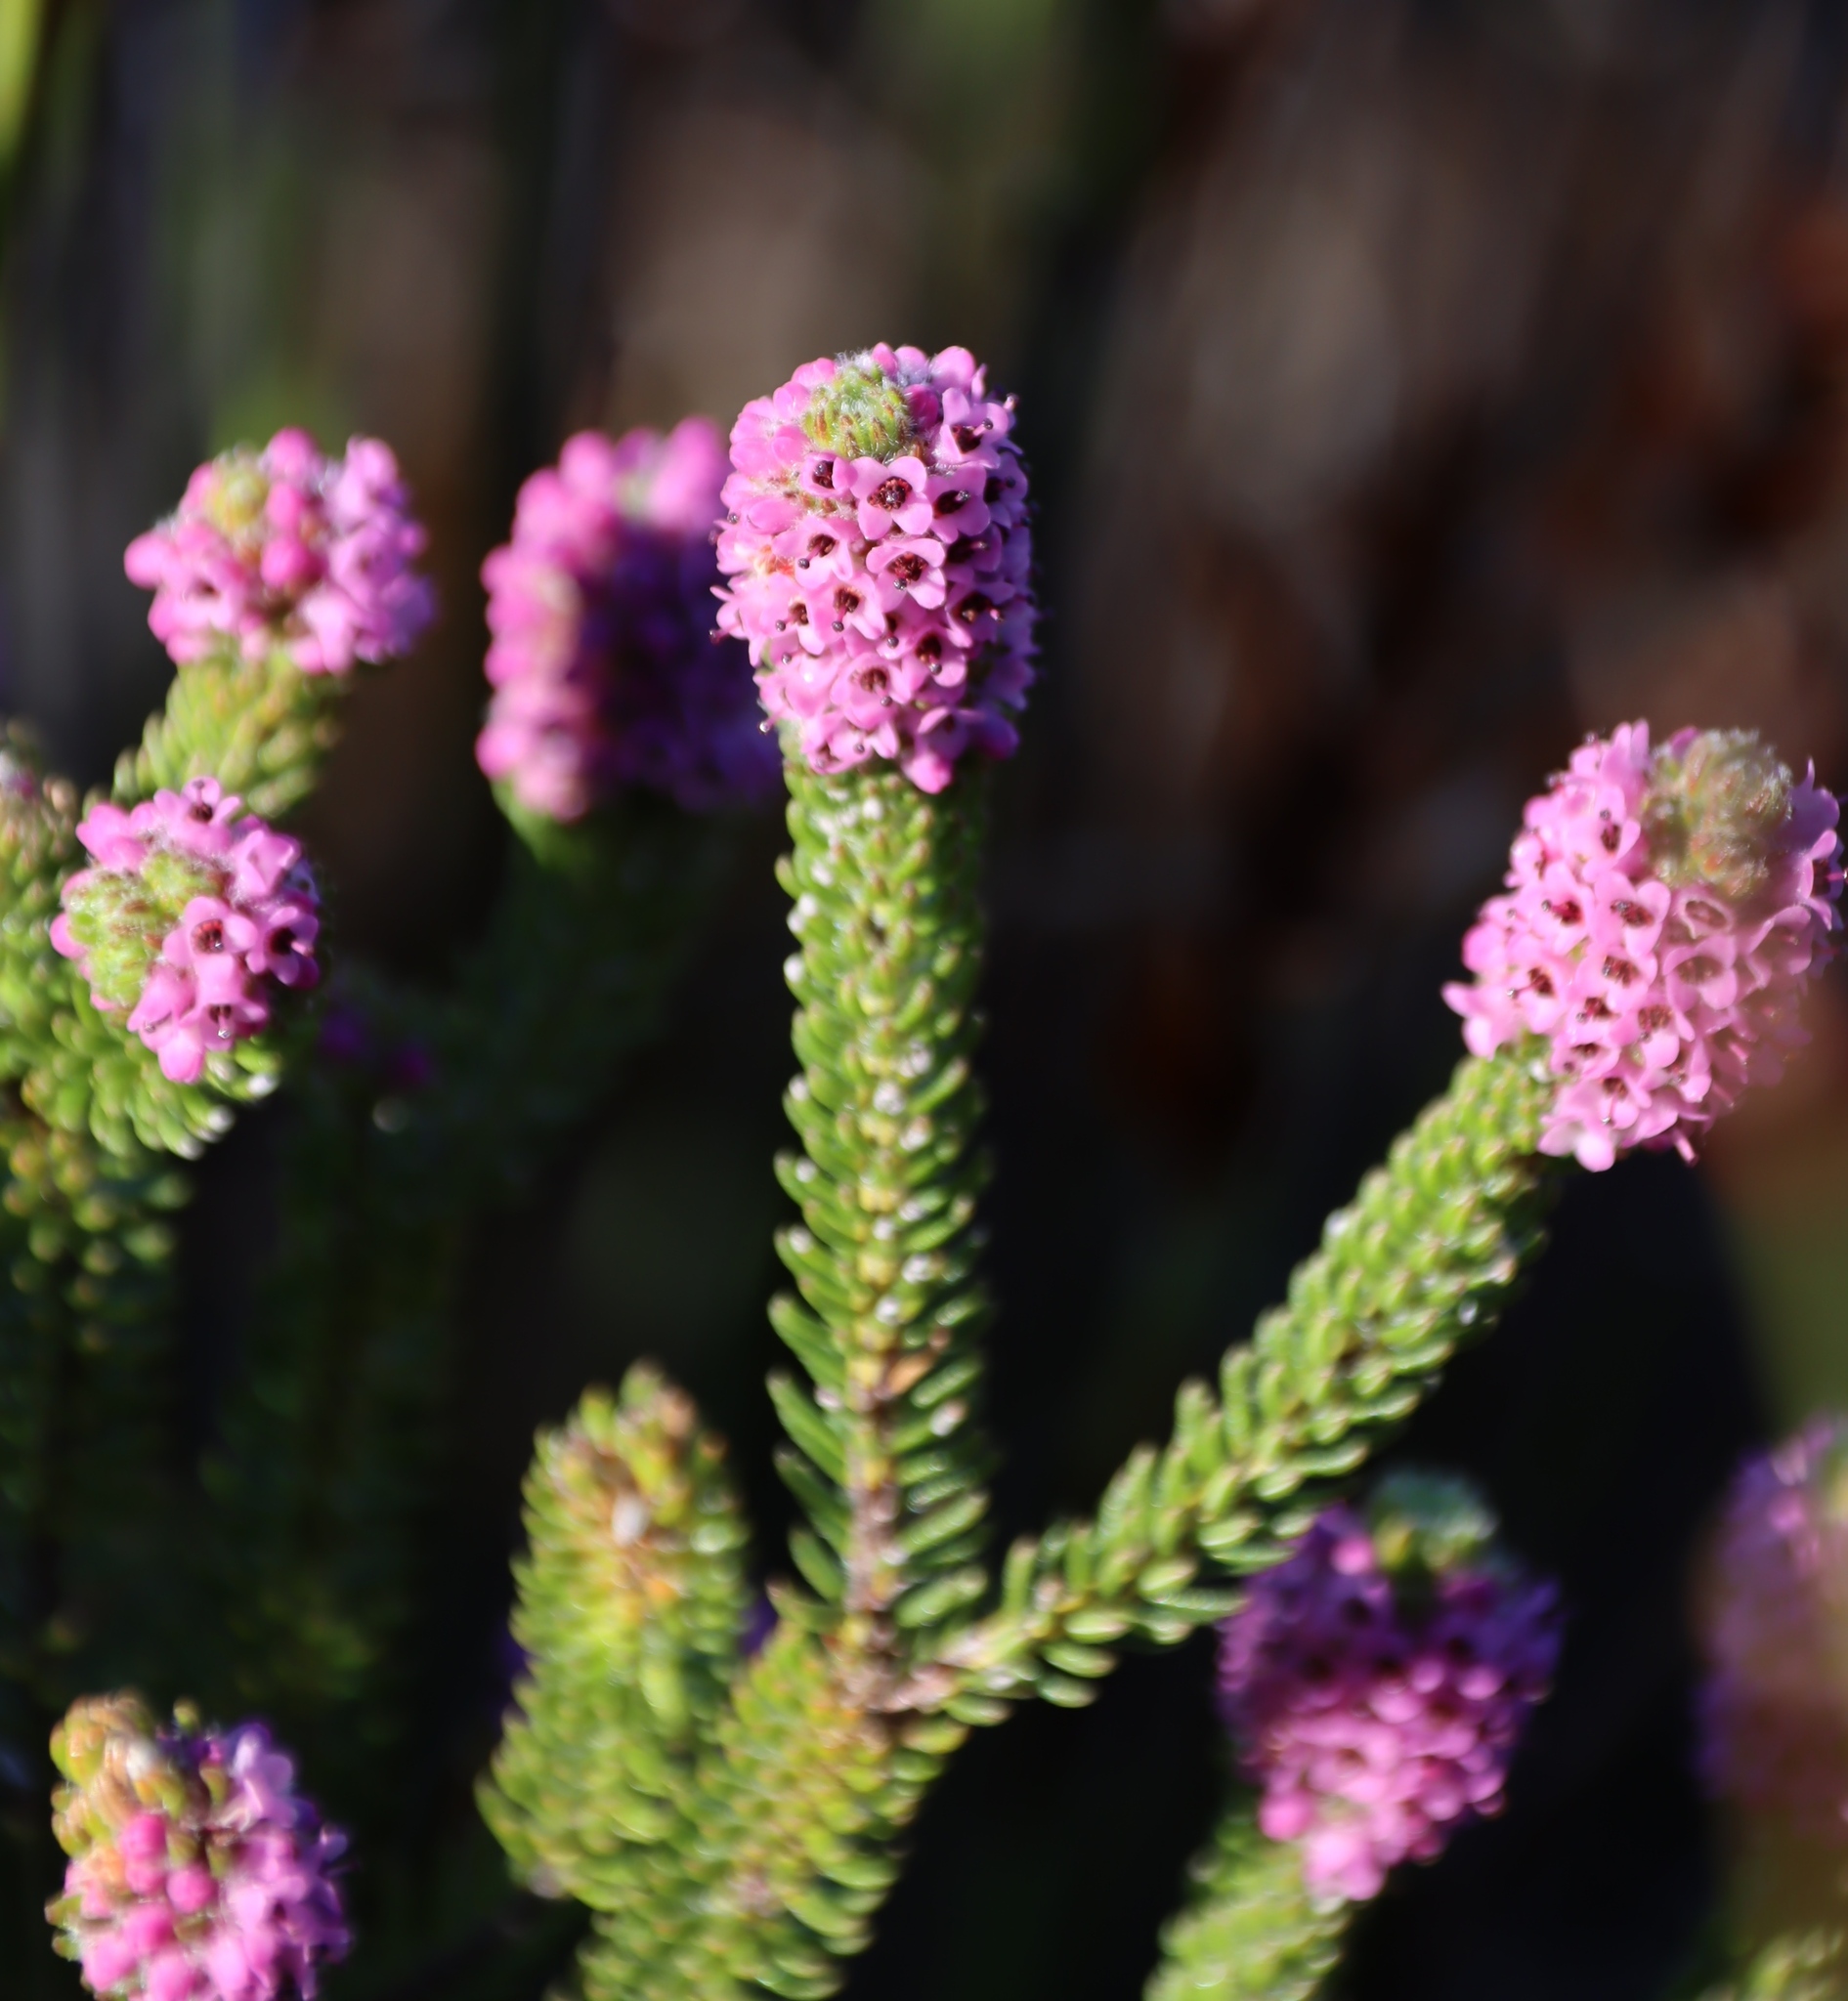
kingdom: Plantae
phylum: Tracheophyta
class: Magnoliopsida
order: Ericales
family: Ericaceae
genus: Erica
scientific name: Erica empetrina
